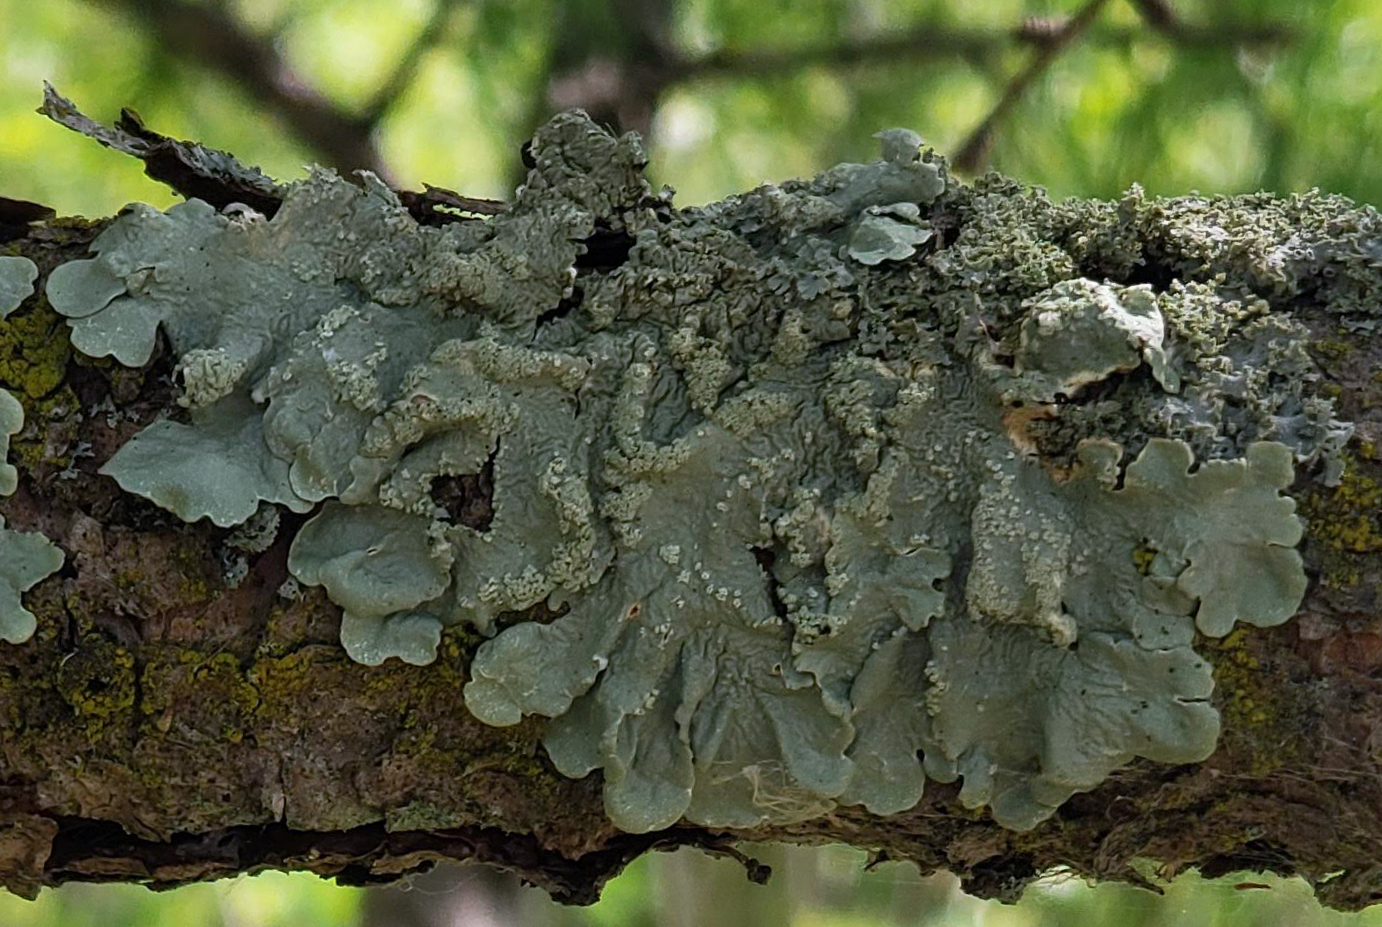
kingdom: Fungi
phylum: Ascomycota
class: Lecanoromycetes
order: Lecanorales
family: Parmeliaceae
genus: Flavoparmelia
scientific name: Flavoparmelia caperata
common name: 40-mile per hour lichen
